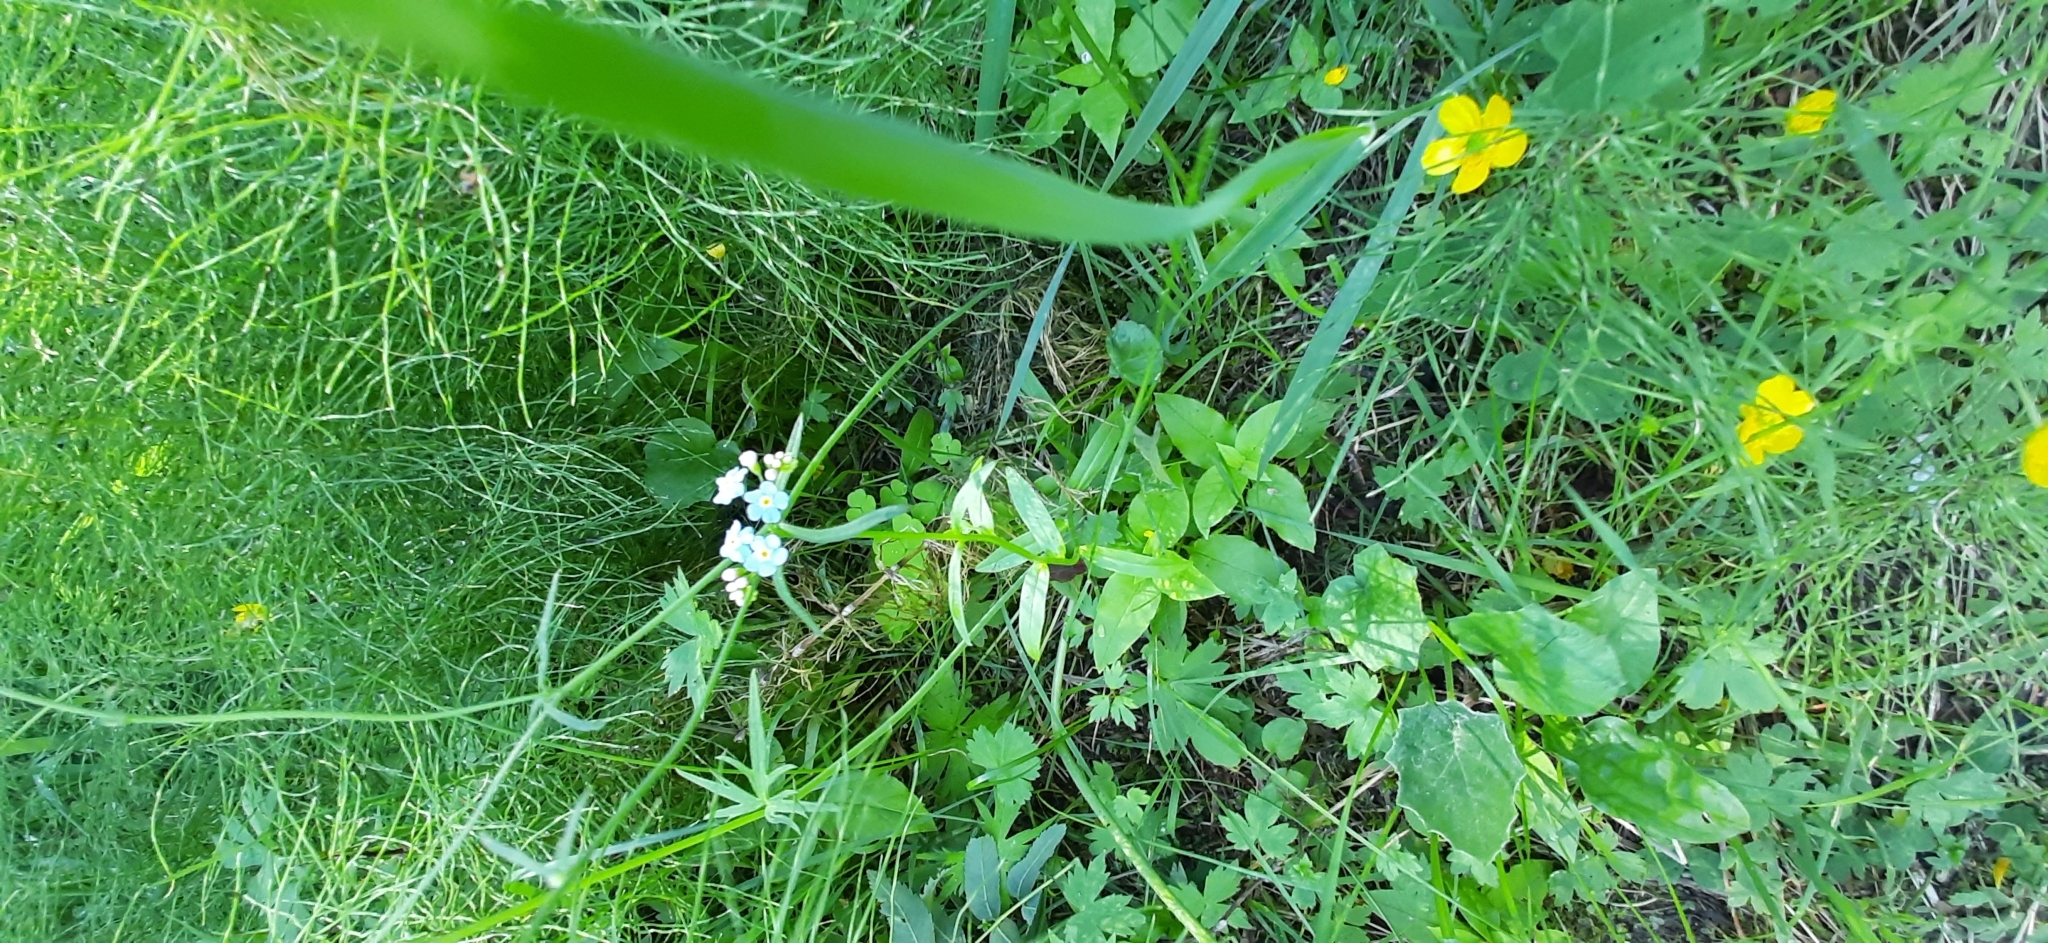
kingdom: Plantae
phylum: Tracheophyta
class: Magnoliopsida
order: Boraginales
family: Boraginaceae
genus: Myosotis
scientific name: Myosotis scorpioides
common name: Water forget-me-not
